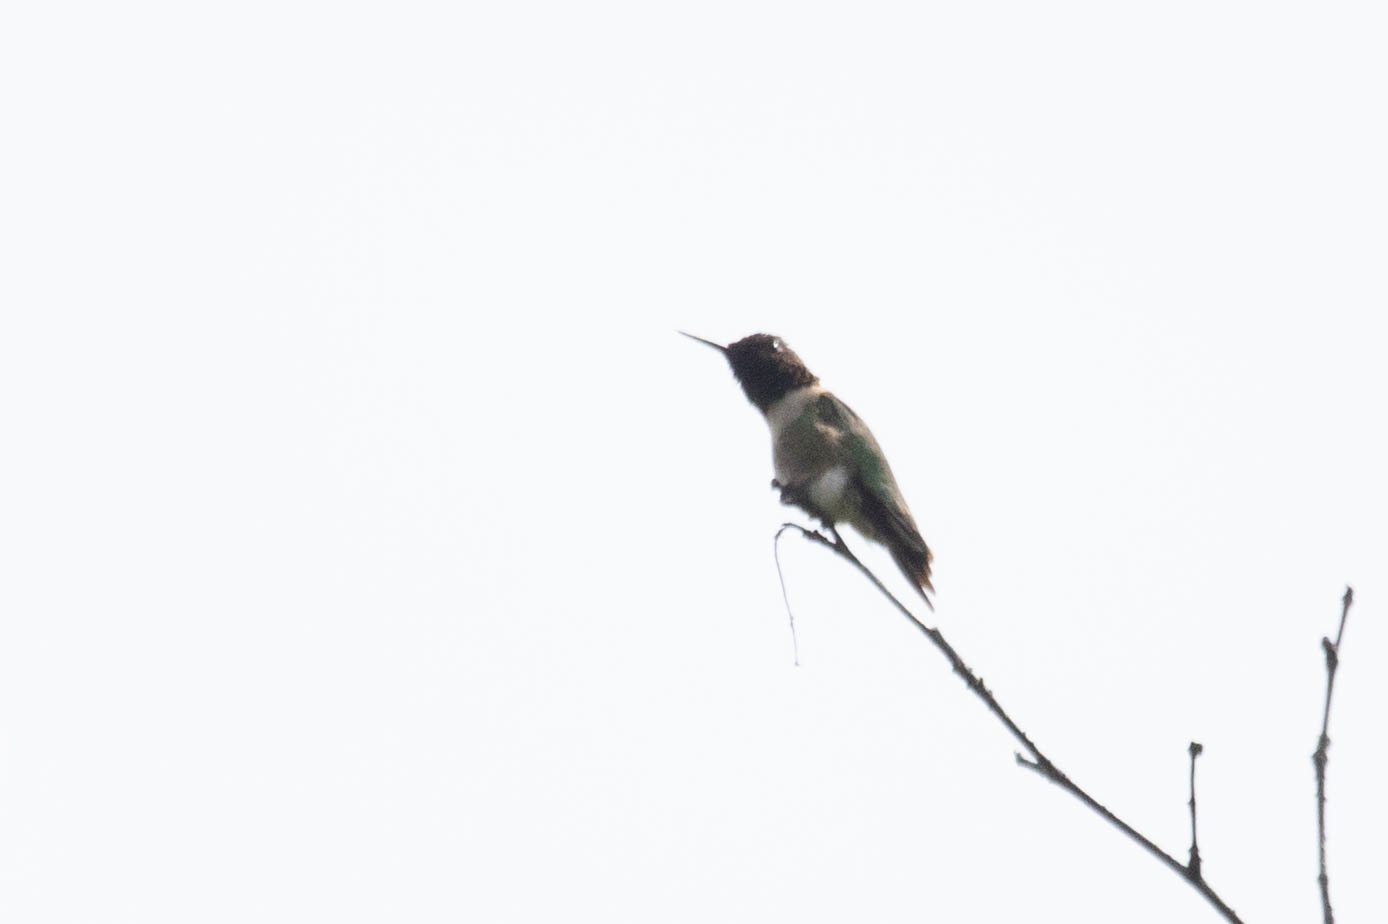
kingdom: Animalia
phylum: Chordata
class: Aves
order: Apodiformes
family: Trochilidae
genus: Archilochus
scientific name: Archilochus colubris
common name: Ruby-throated hummingbird
